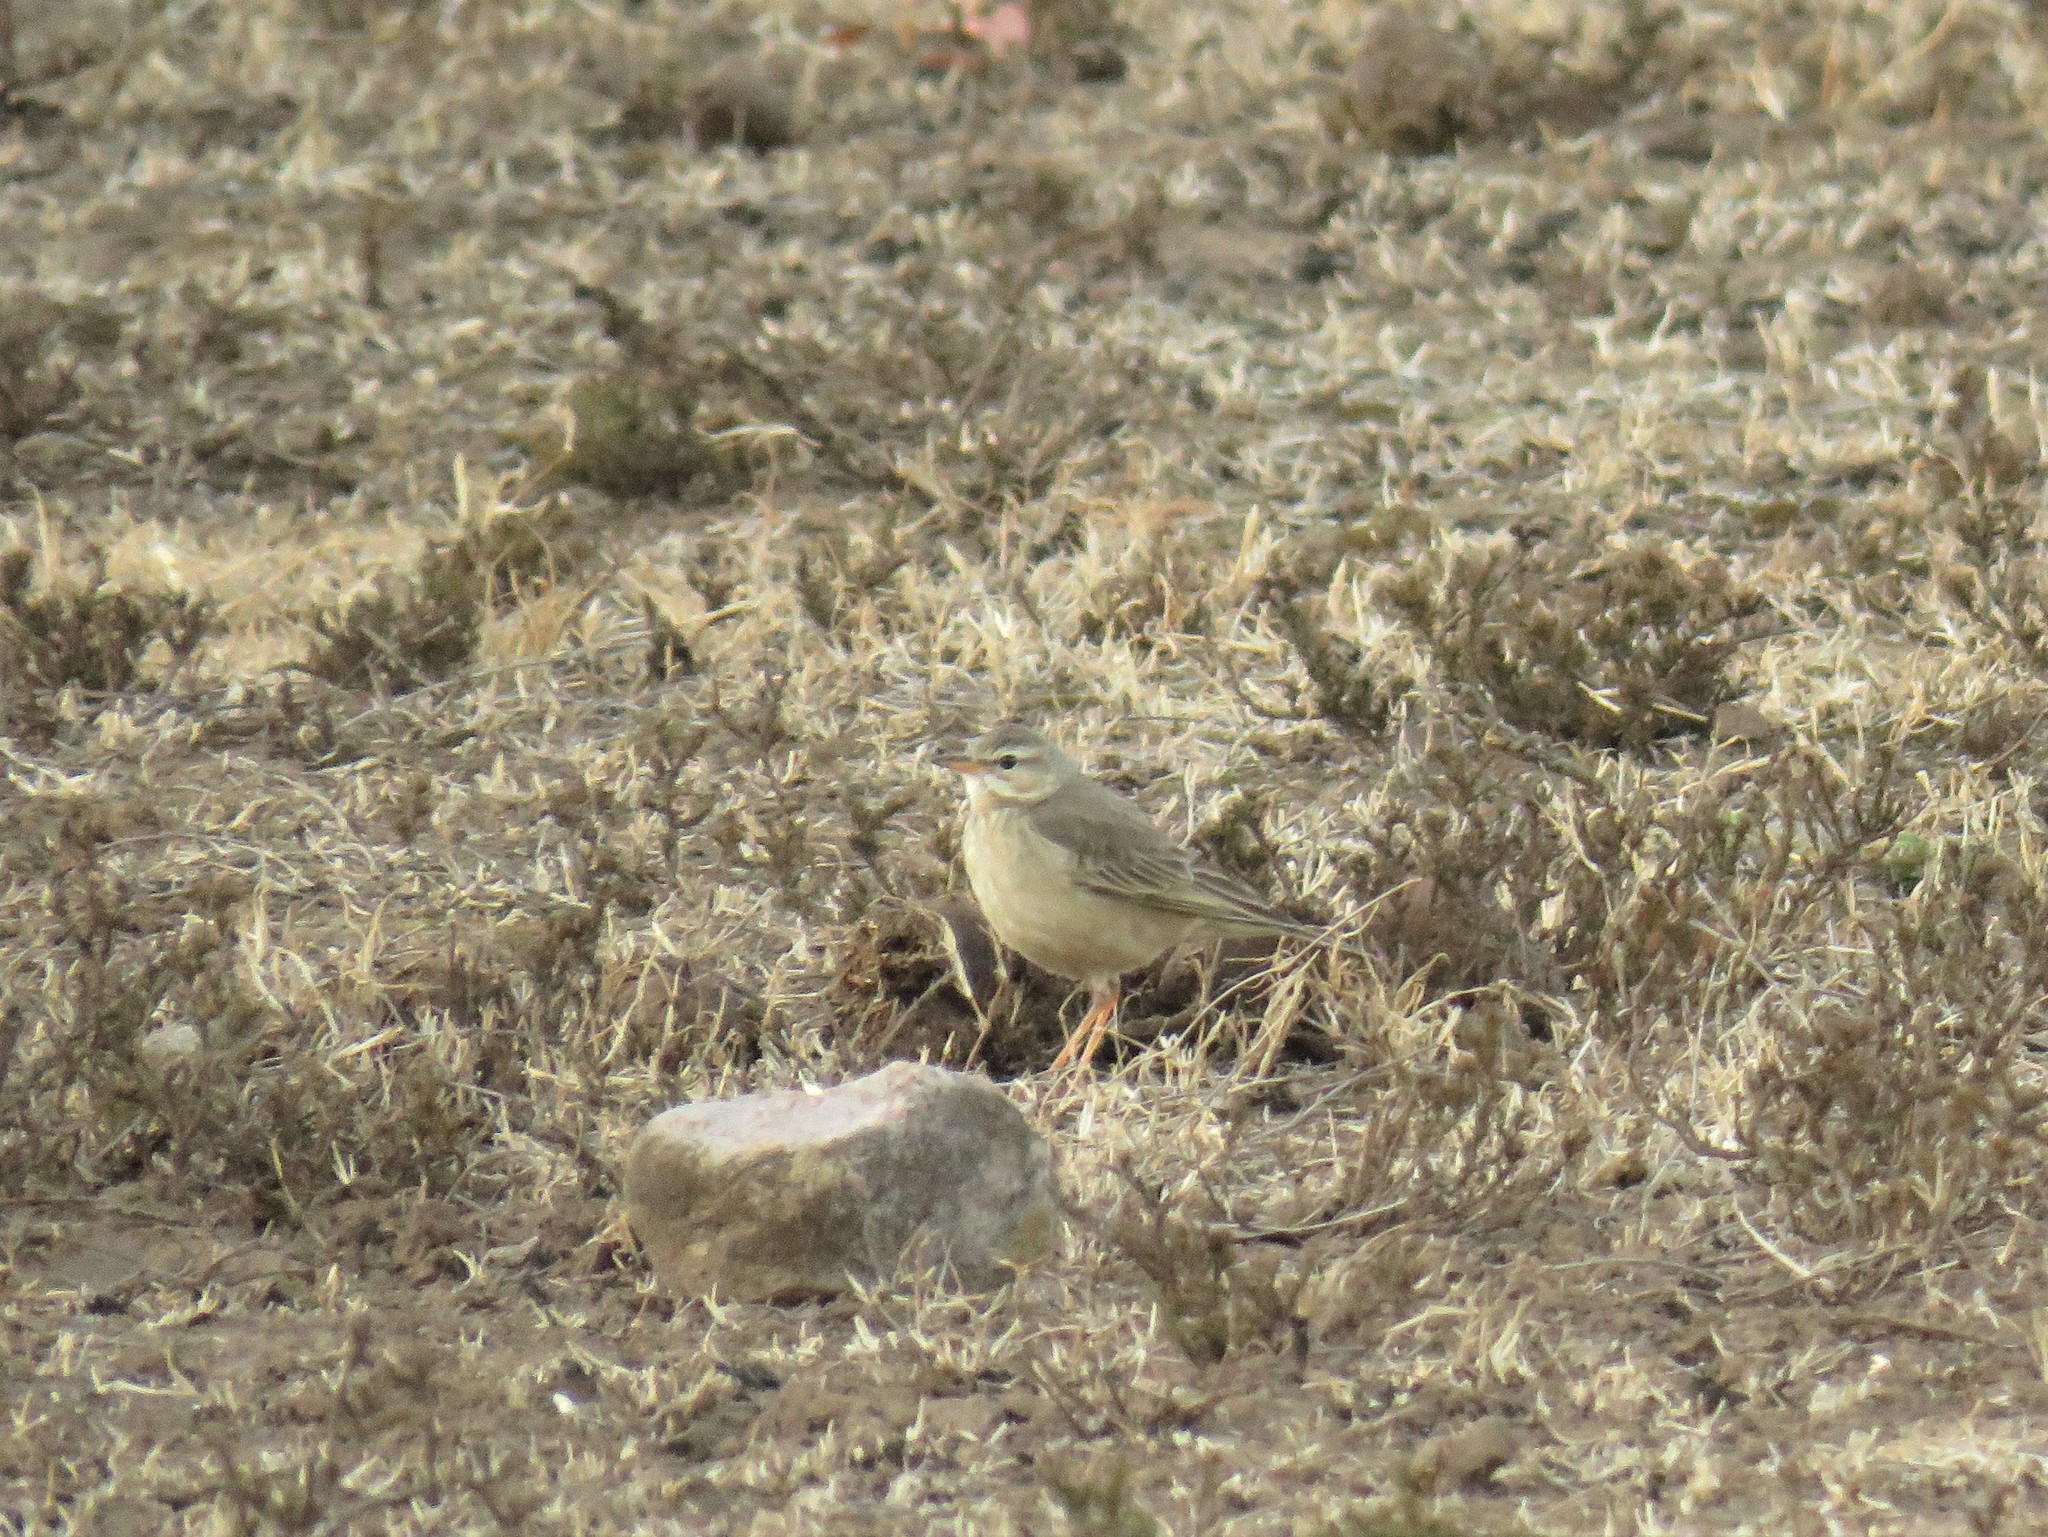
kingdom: Animalia
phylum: Chordata
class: Aves
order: Passeriformes
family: Motacillidae
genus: Anthus
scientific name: Anthus leucophrys
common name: Plain-backed pipit
